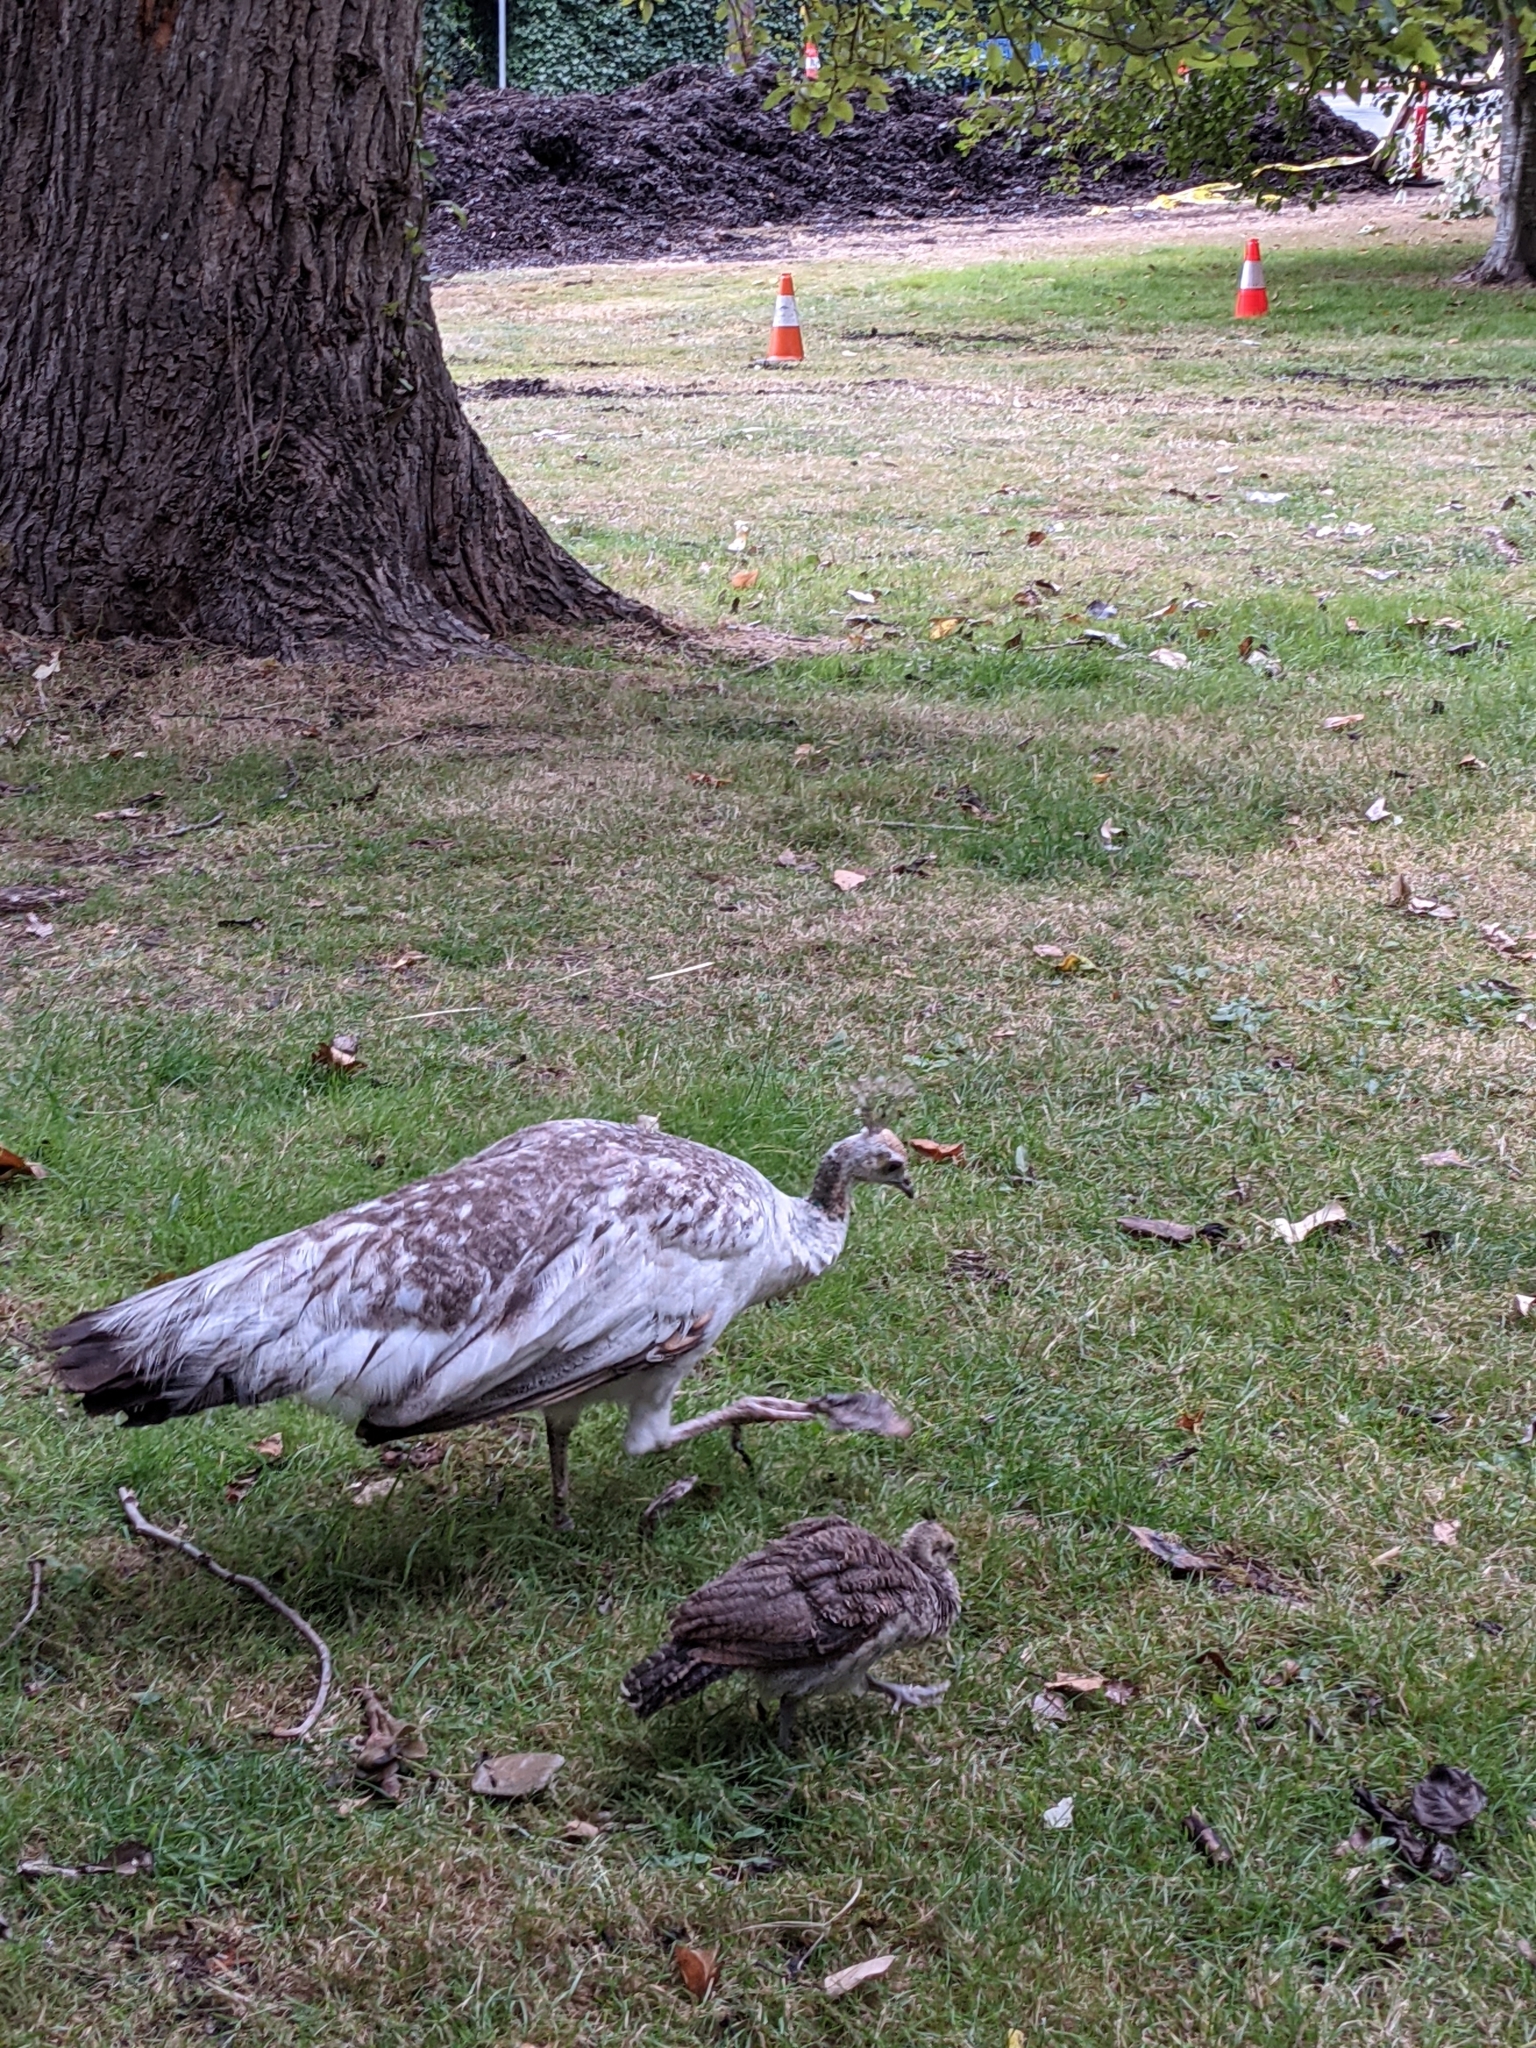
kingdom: Animalia
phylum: Chordata
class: Aves
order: Galliformes
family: Phasianidae
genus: Pavo
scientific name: Pavo cristatus
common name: Indian peafowl
